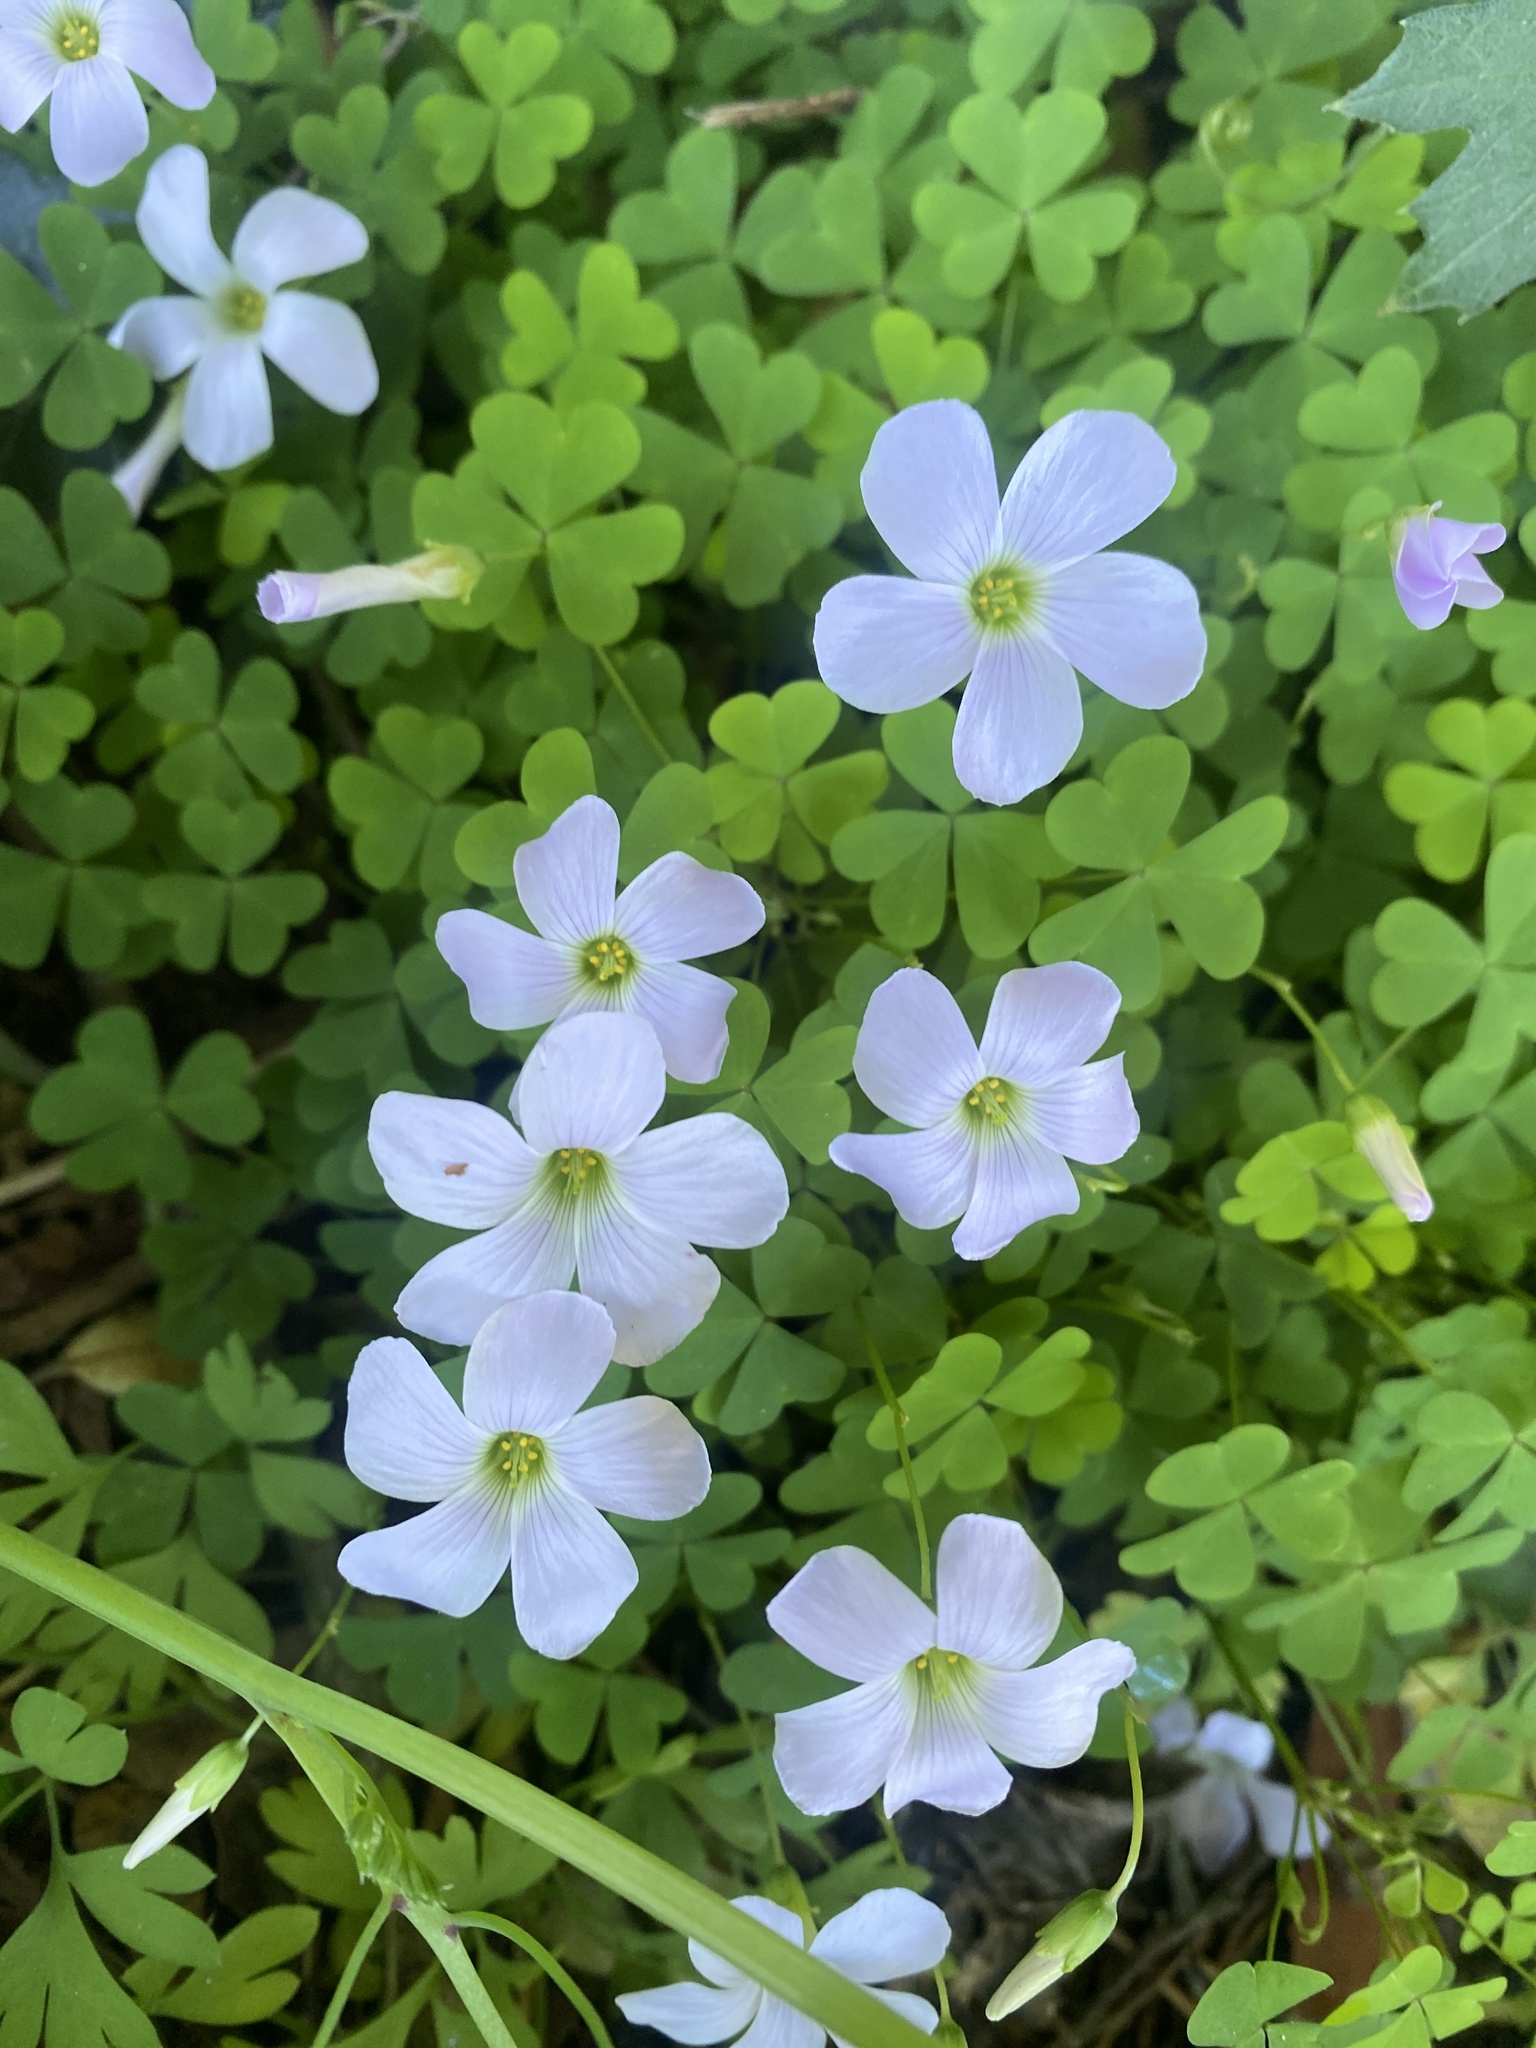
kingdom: Plantae
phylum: Tracheophyta
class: Magnoliopsida
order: Oxalidales
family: Oxalidaceae
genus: Oxalis
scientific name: Oxalis incarnata
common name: Pale pink-sorrel
